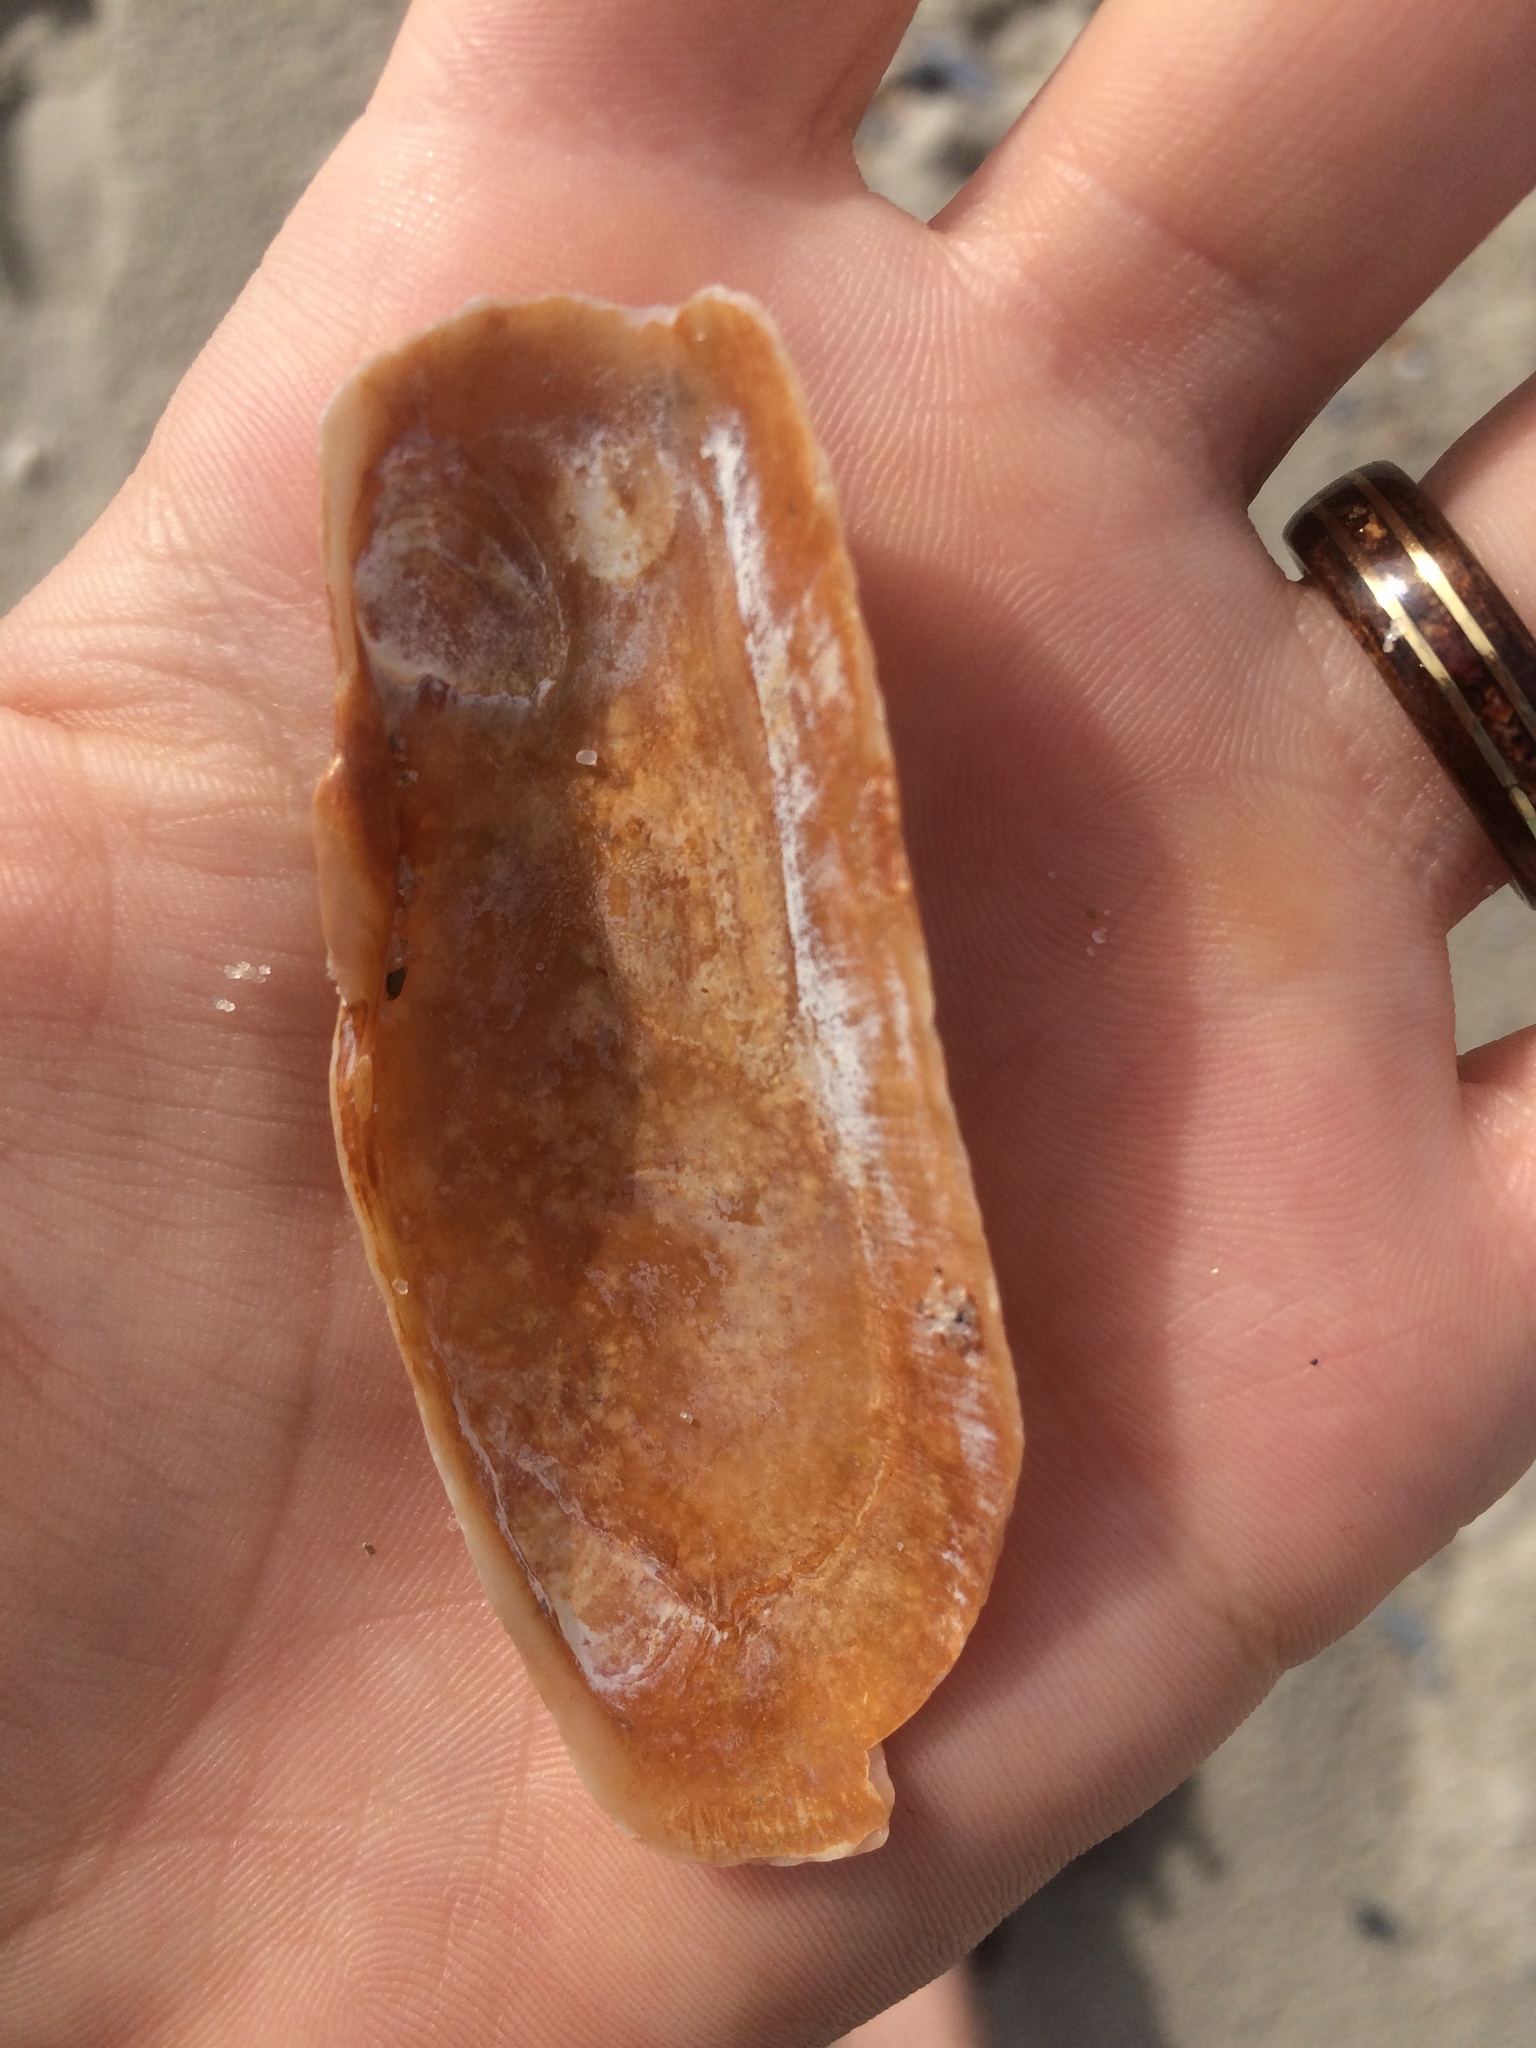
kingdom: Animalia
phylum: Mollusca
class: Bivalvia
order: Cardiida
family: Solecurtidae
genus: Tagelus
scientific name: Tagelus plebeius
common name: Stout tagelus
